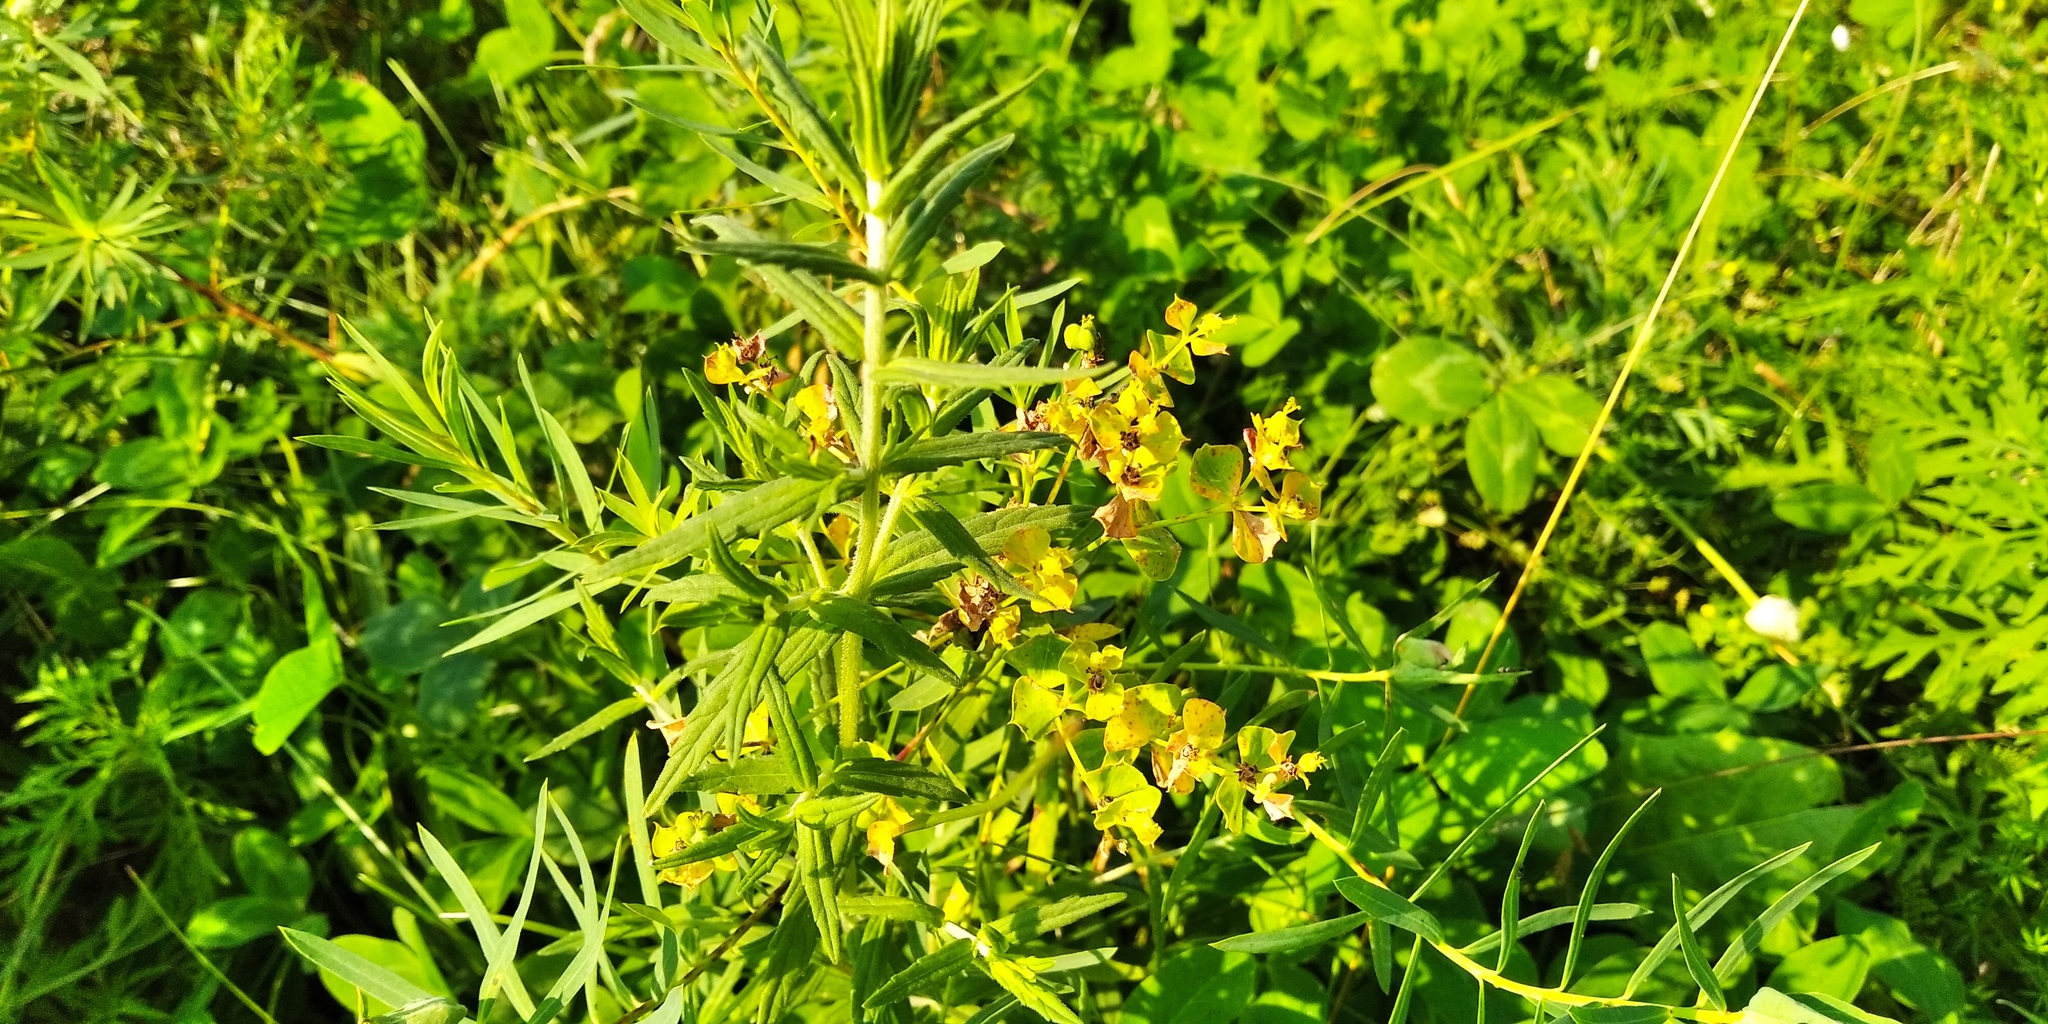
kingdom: Plantae
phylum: Tracheophyta
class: Magnoliopsida
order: Malpighiales
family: Euphorbiaceae
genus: Euphorbia
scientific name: Euphorbia virgata
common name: Leafy spurge
